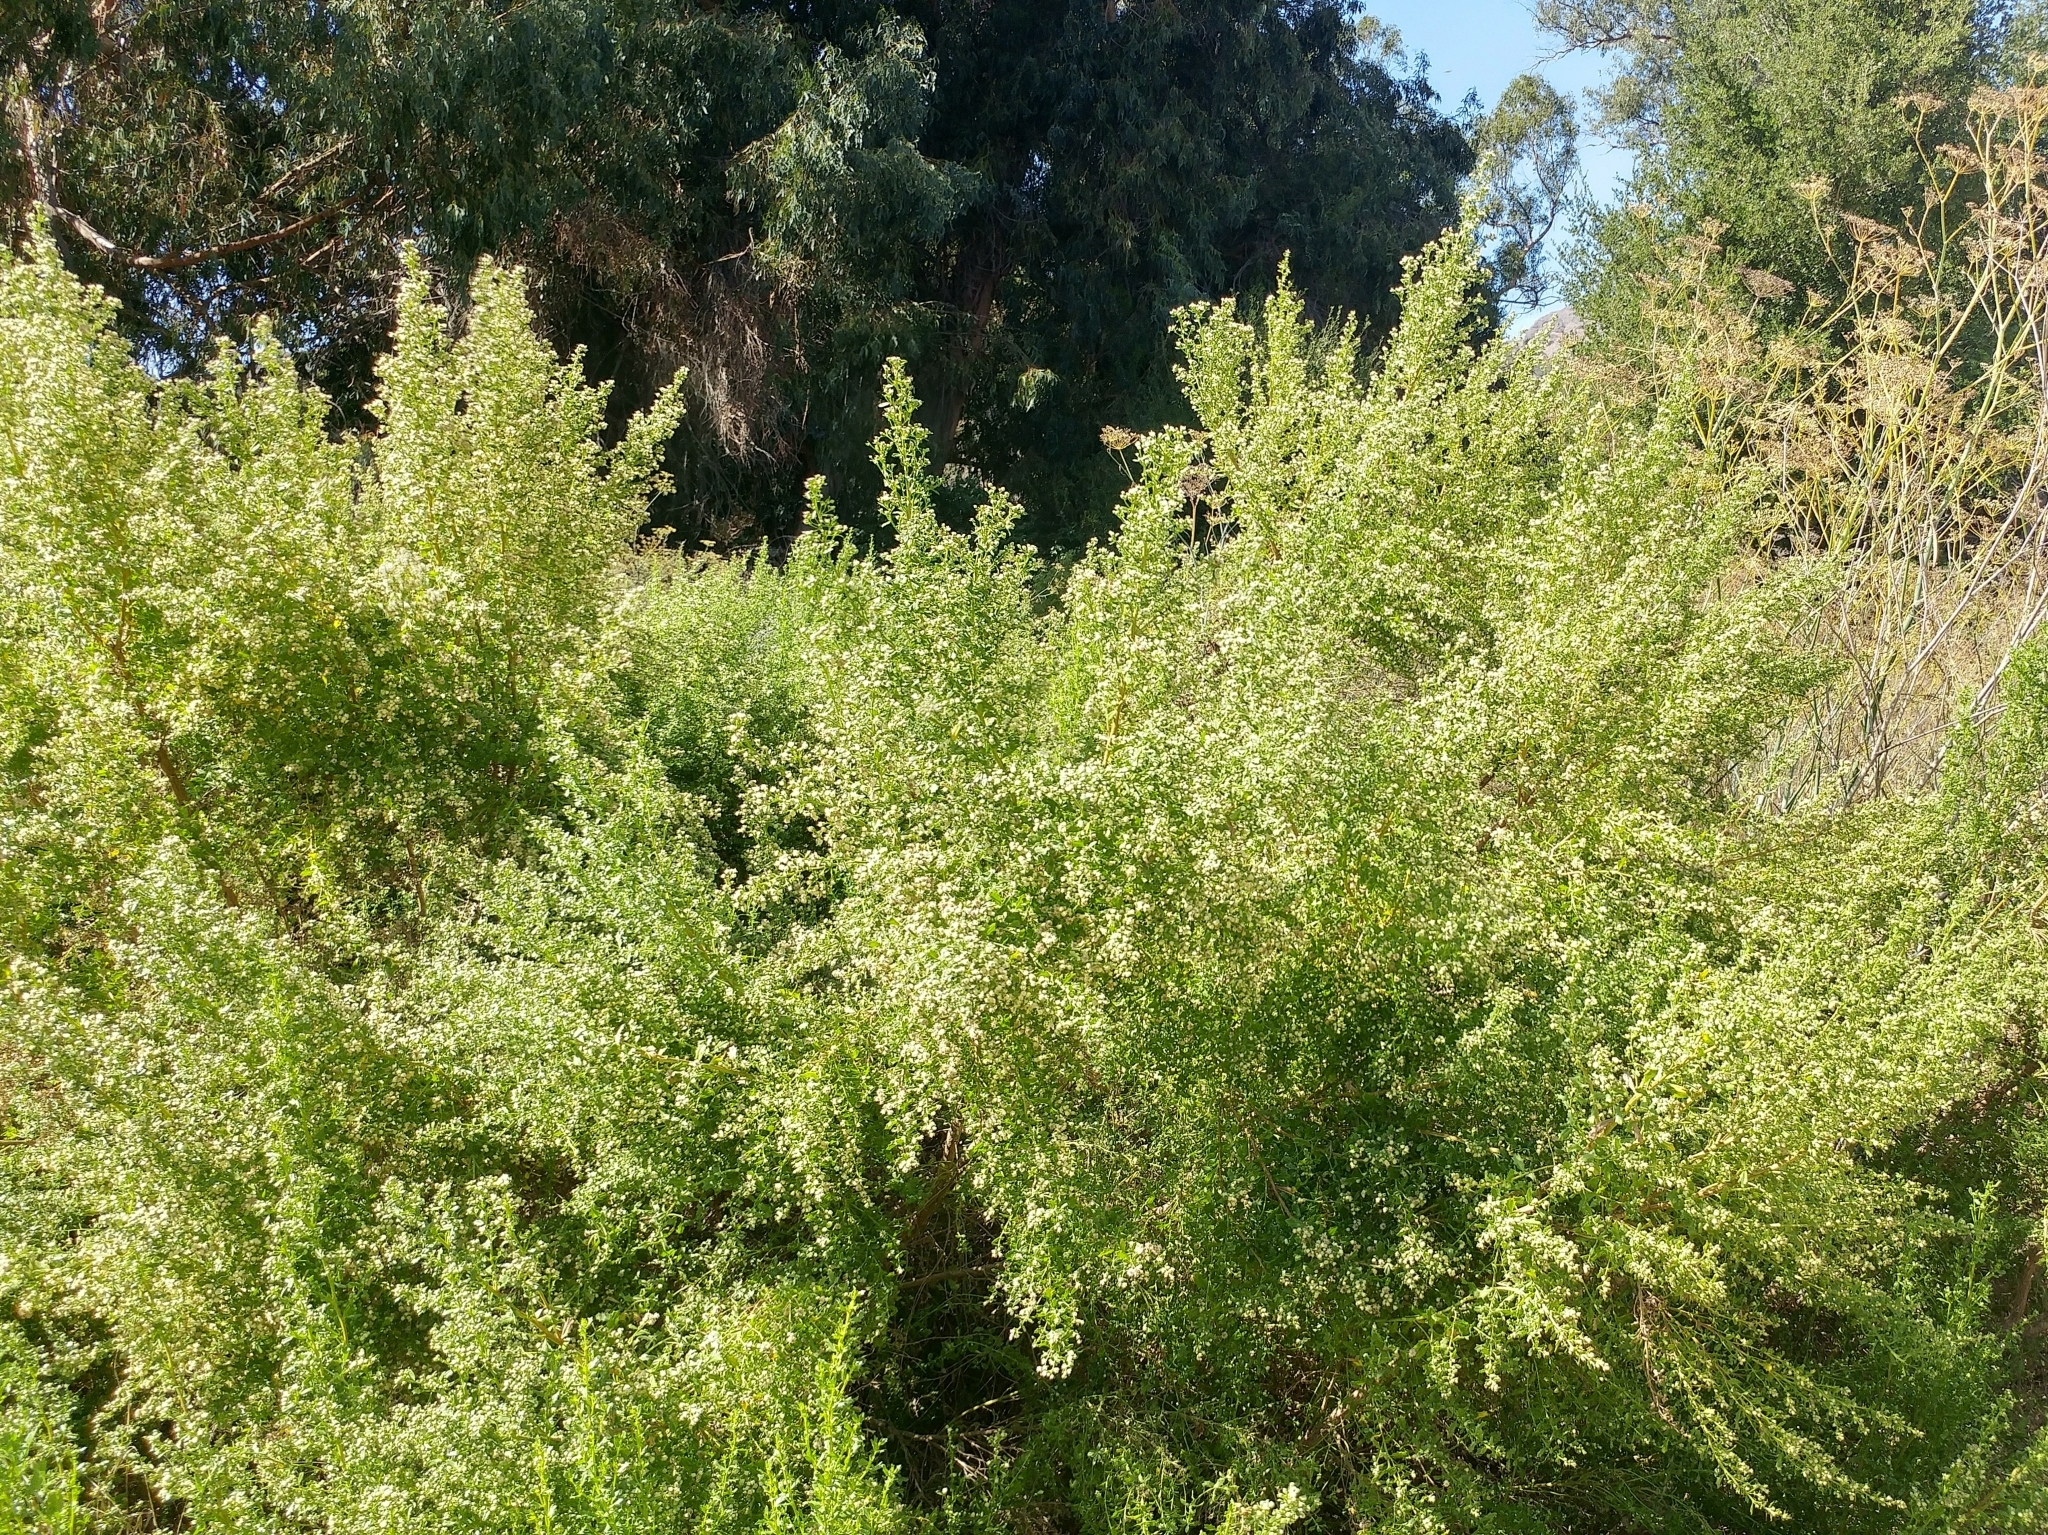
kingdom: Plantae
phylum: Tracheophyta
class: Magnoliopsida
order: Asterales
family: Asteraceae
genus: Baccharis
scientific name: Baccharis pilularis
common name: Coyotebrush
